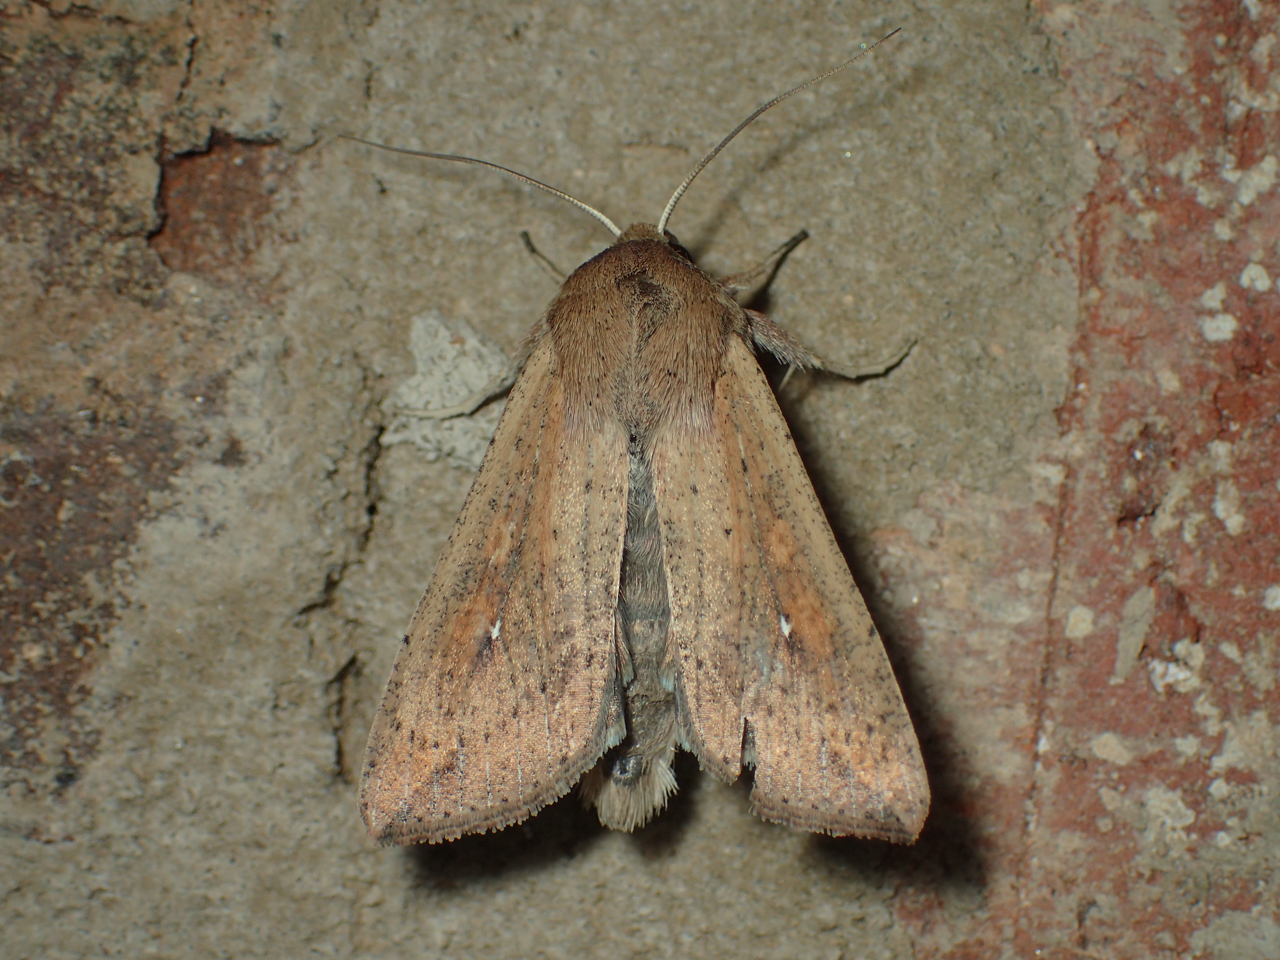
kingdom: Animalia
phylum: Arthropoda
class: Insecta
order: Lepidoptera
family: Noctuidae
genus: Mythimna
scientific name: Mythimna unipuncta
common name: White-speck
